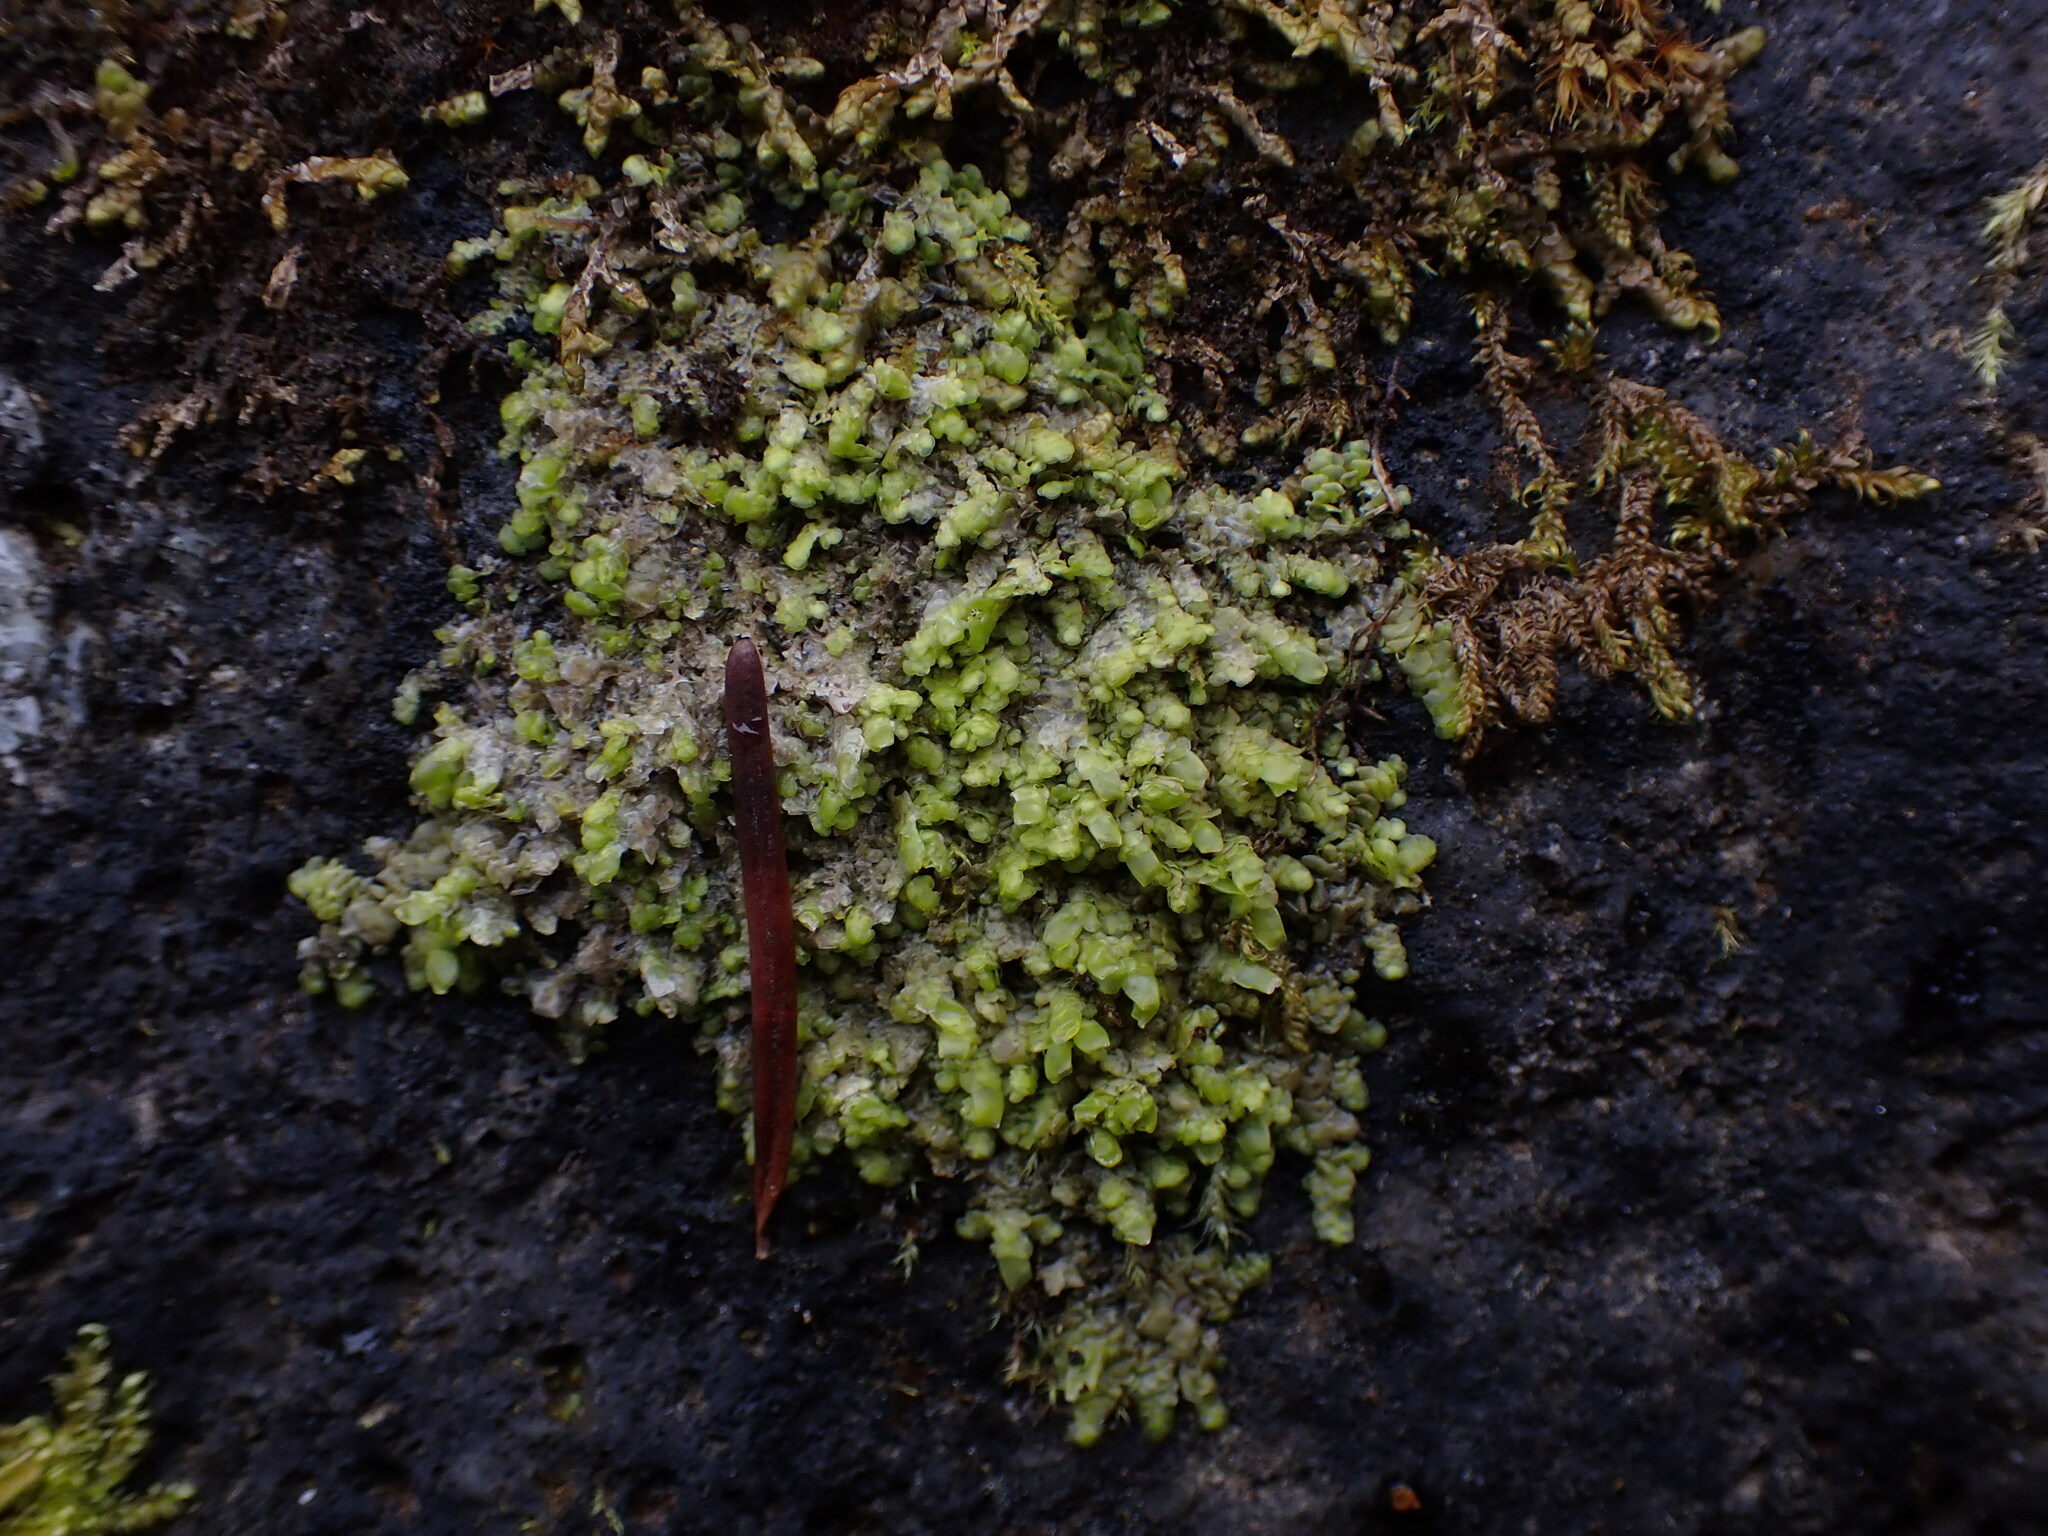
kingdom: Plantae
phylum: Marchantiophyta
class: Jungermanniopsida
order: Porellales
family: Radulaceae
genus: Radula
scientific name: Radula complanata
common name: Flat-leaved scalewort
